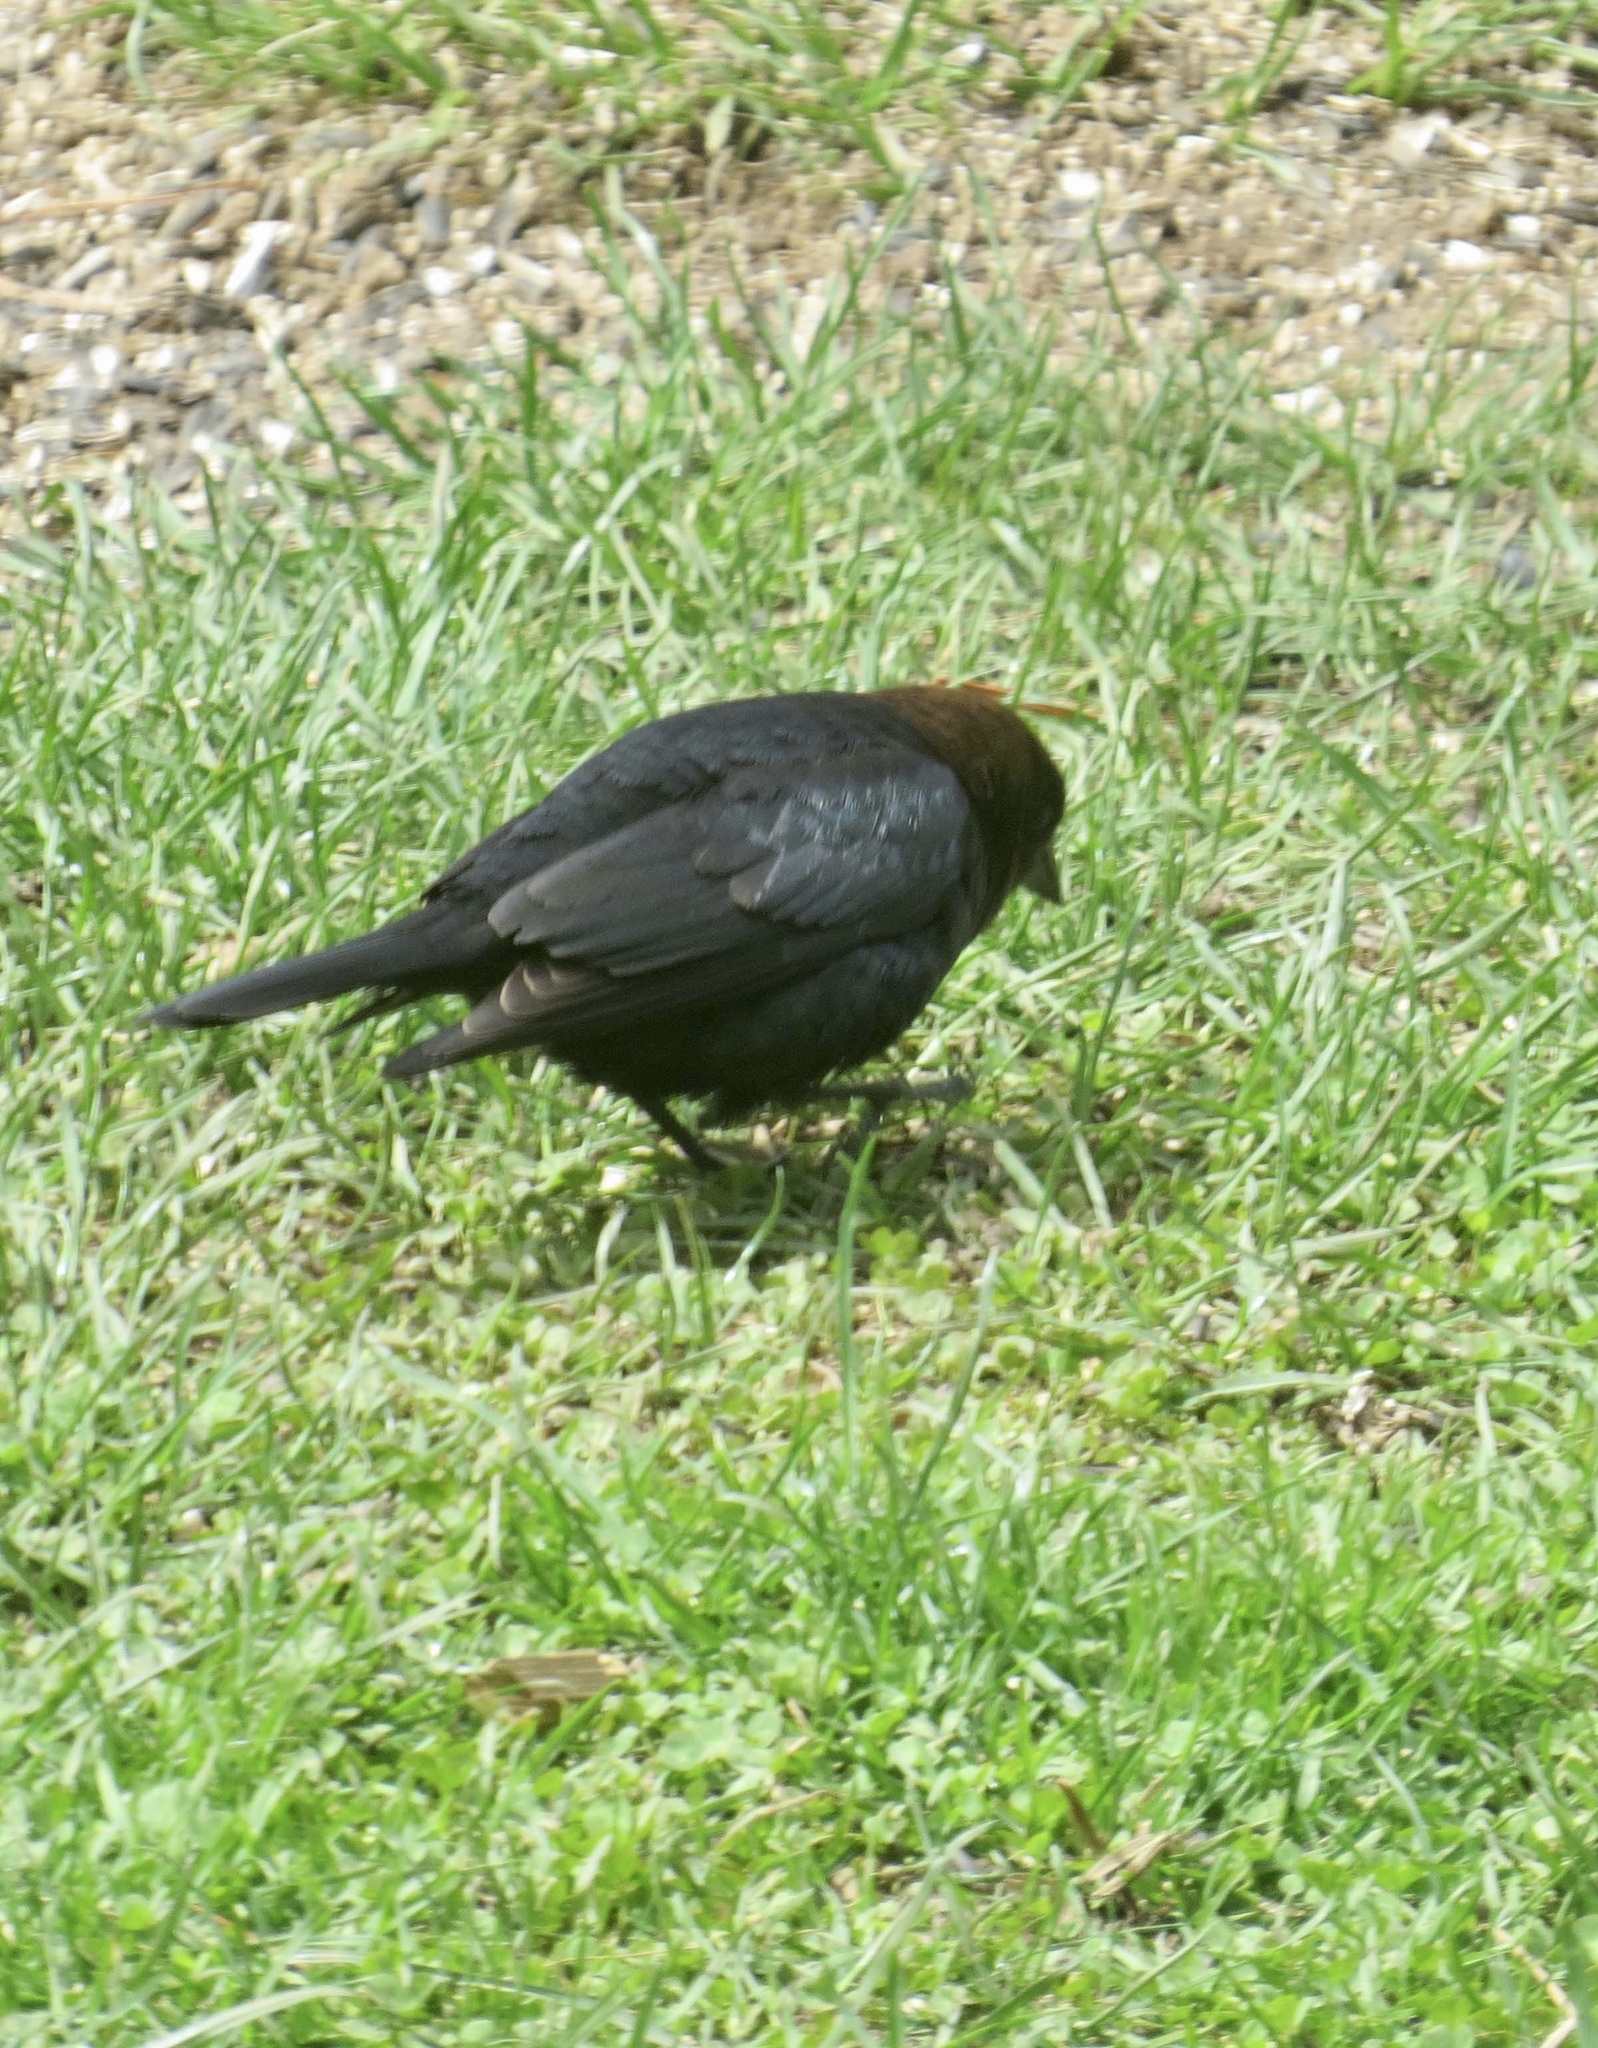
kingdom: Animalia
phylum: Chordata
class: Aves
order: Passeriformes
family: Icteridae
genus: Molothrus
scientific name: Molothrus ater
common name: Brown-headed cowbird
